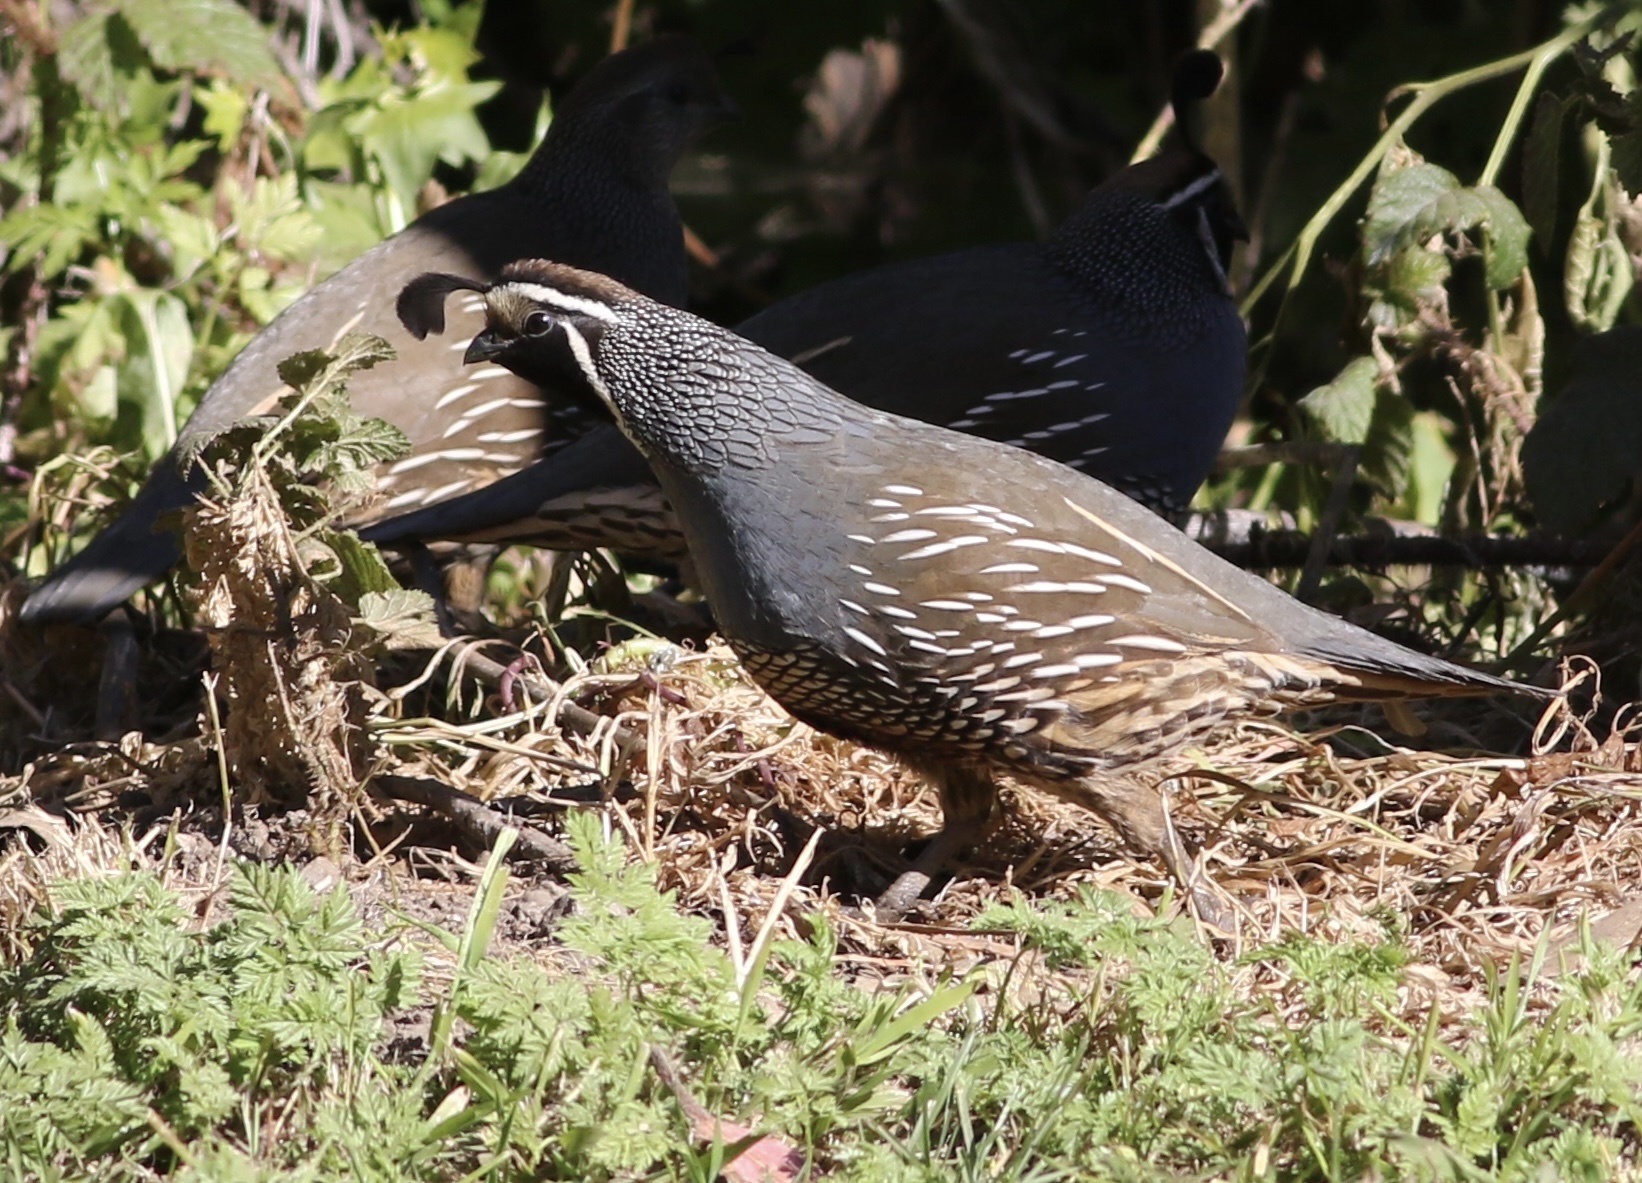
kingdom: Animalia
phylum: Chordata
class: Aves
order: Galliformes
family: Odontophoridae
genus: Callipepla
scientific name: Callipepla californica
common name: California quail
